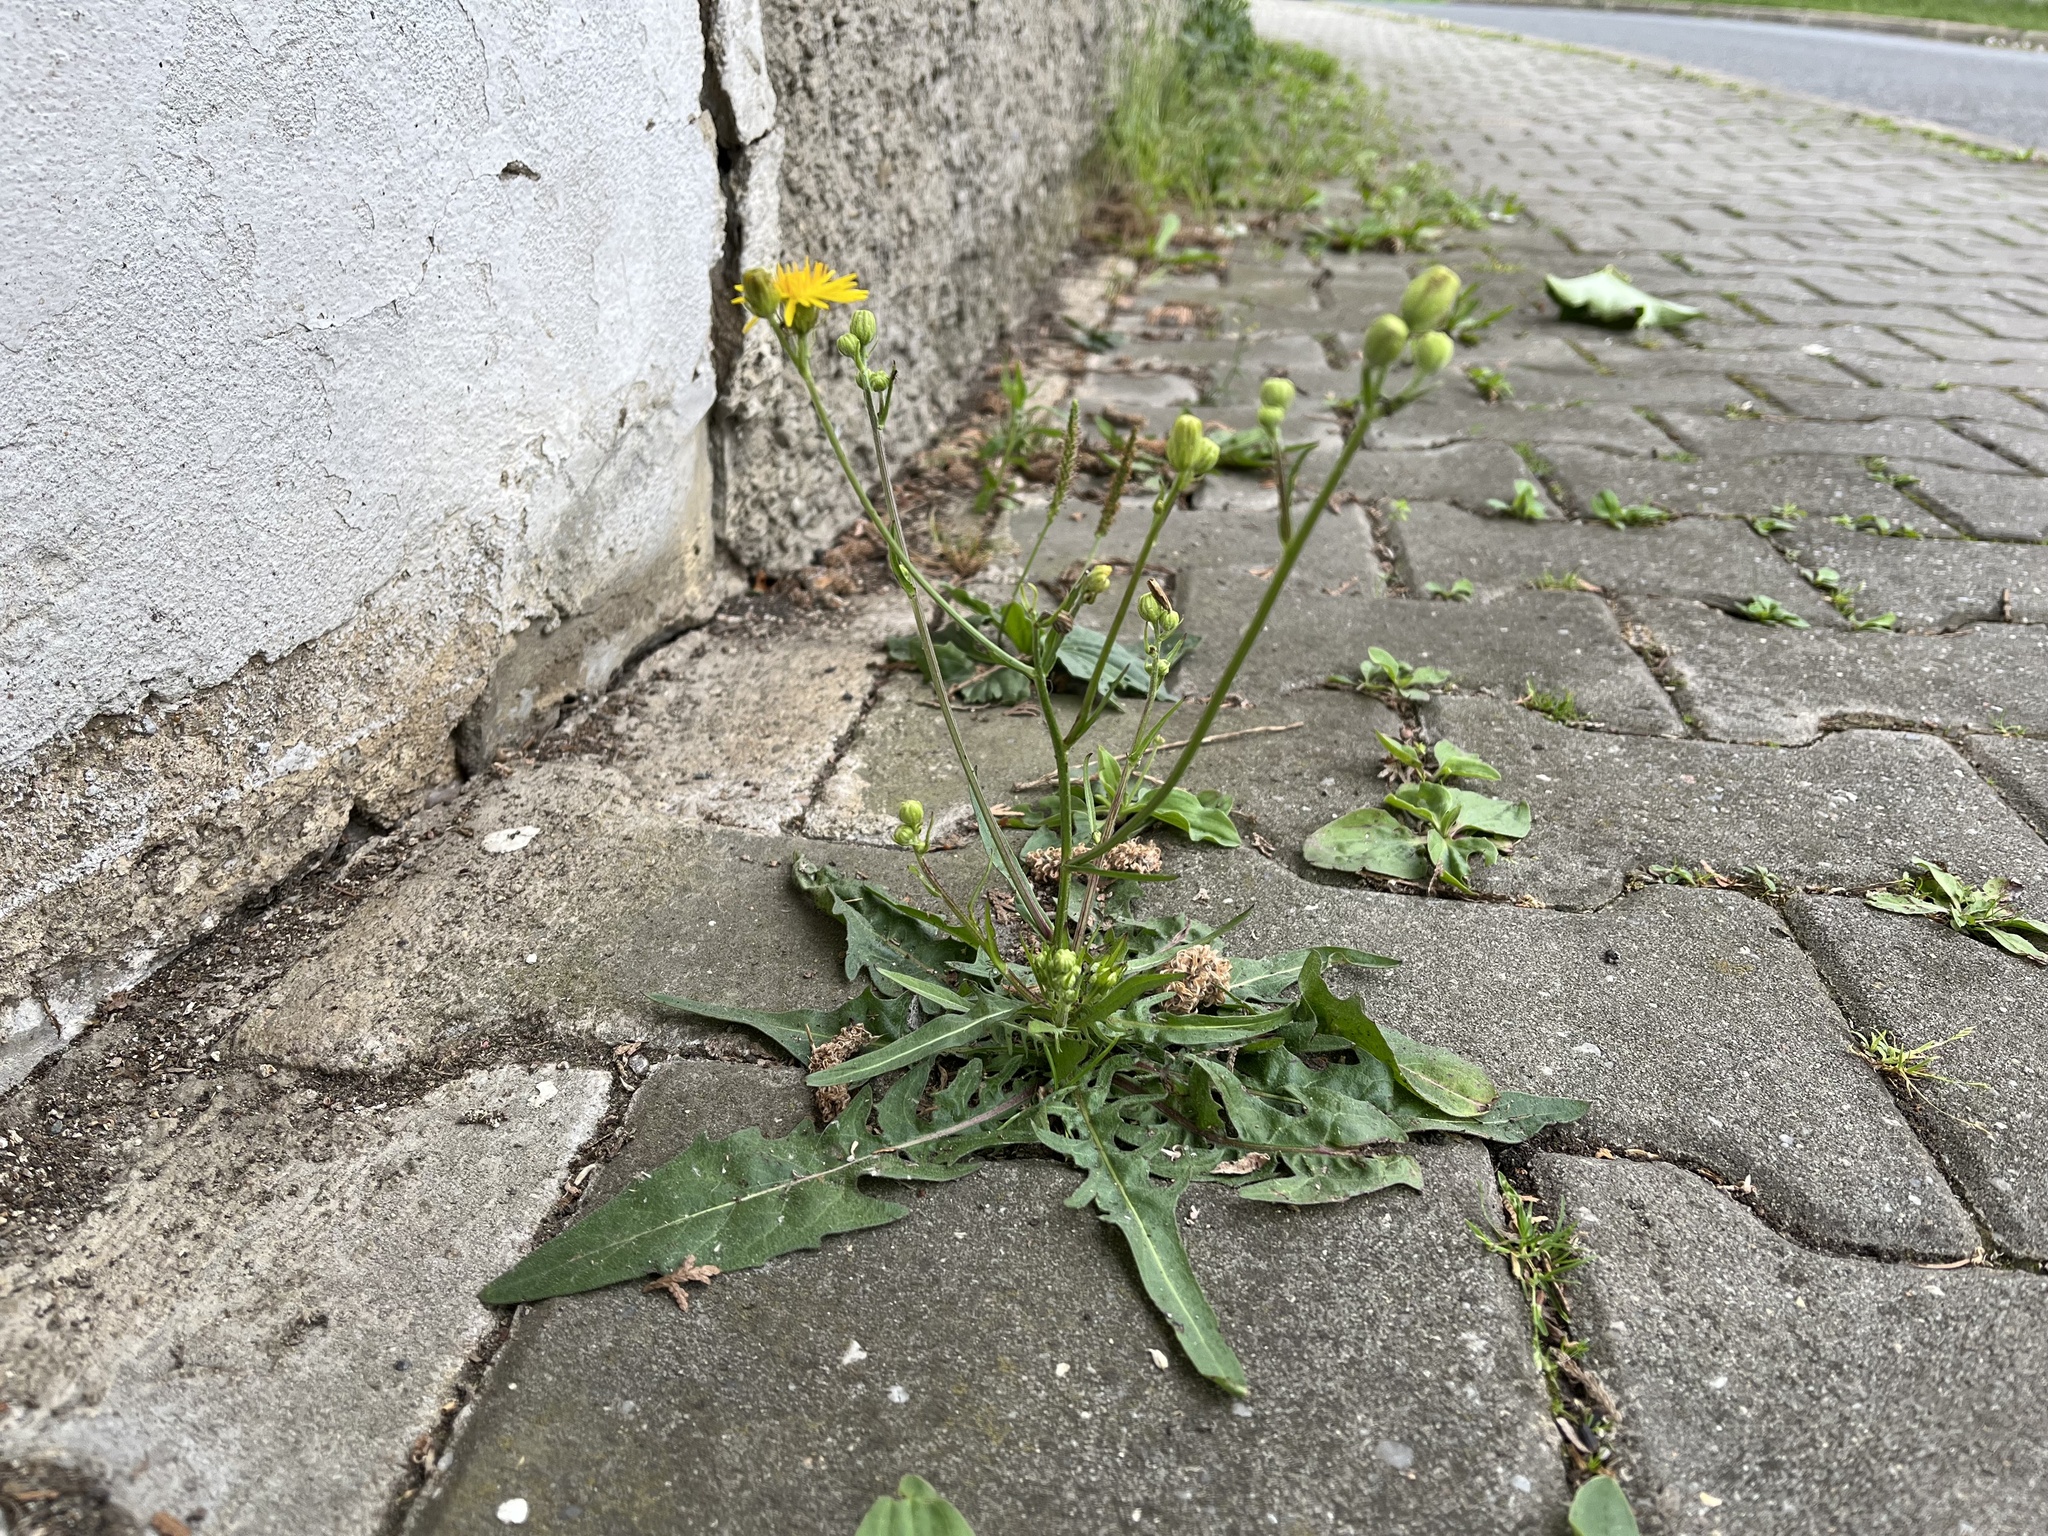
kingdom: Plantae
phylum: Tracheophyta
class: Magnoliopsida
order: Asterales
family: Asteraceae
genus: Crepis
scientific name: Crepis biennis
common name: Rough hawk's-beard
